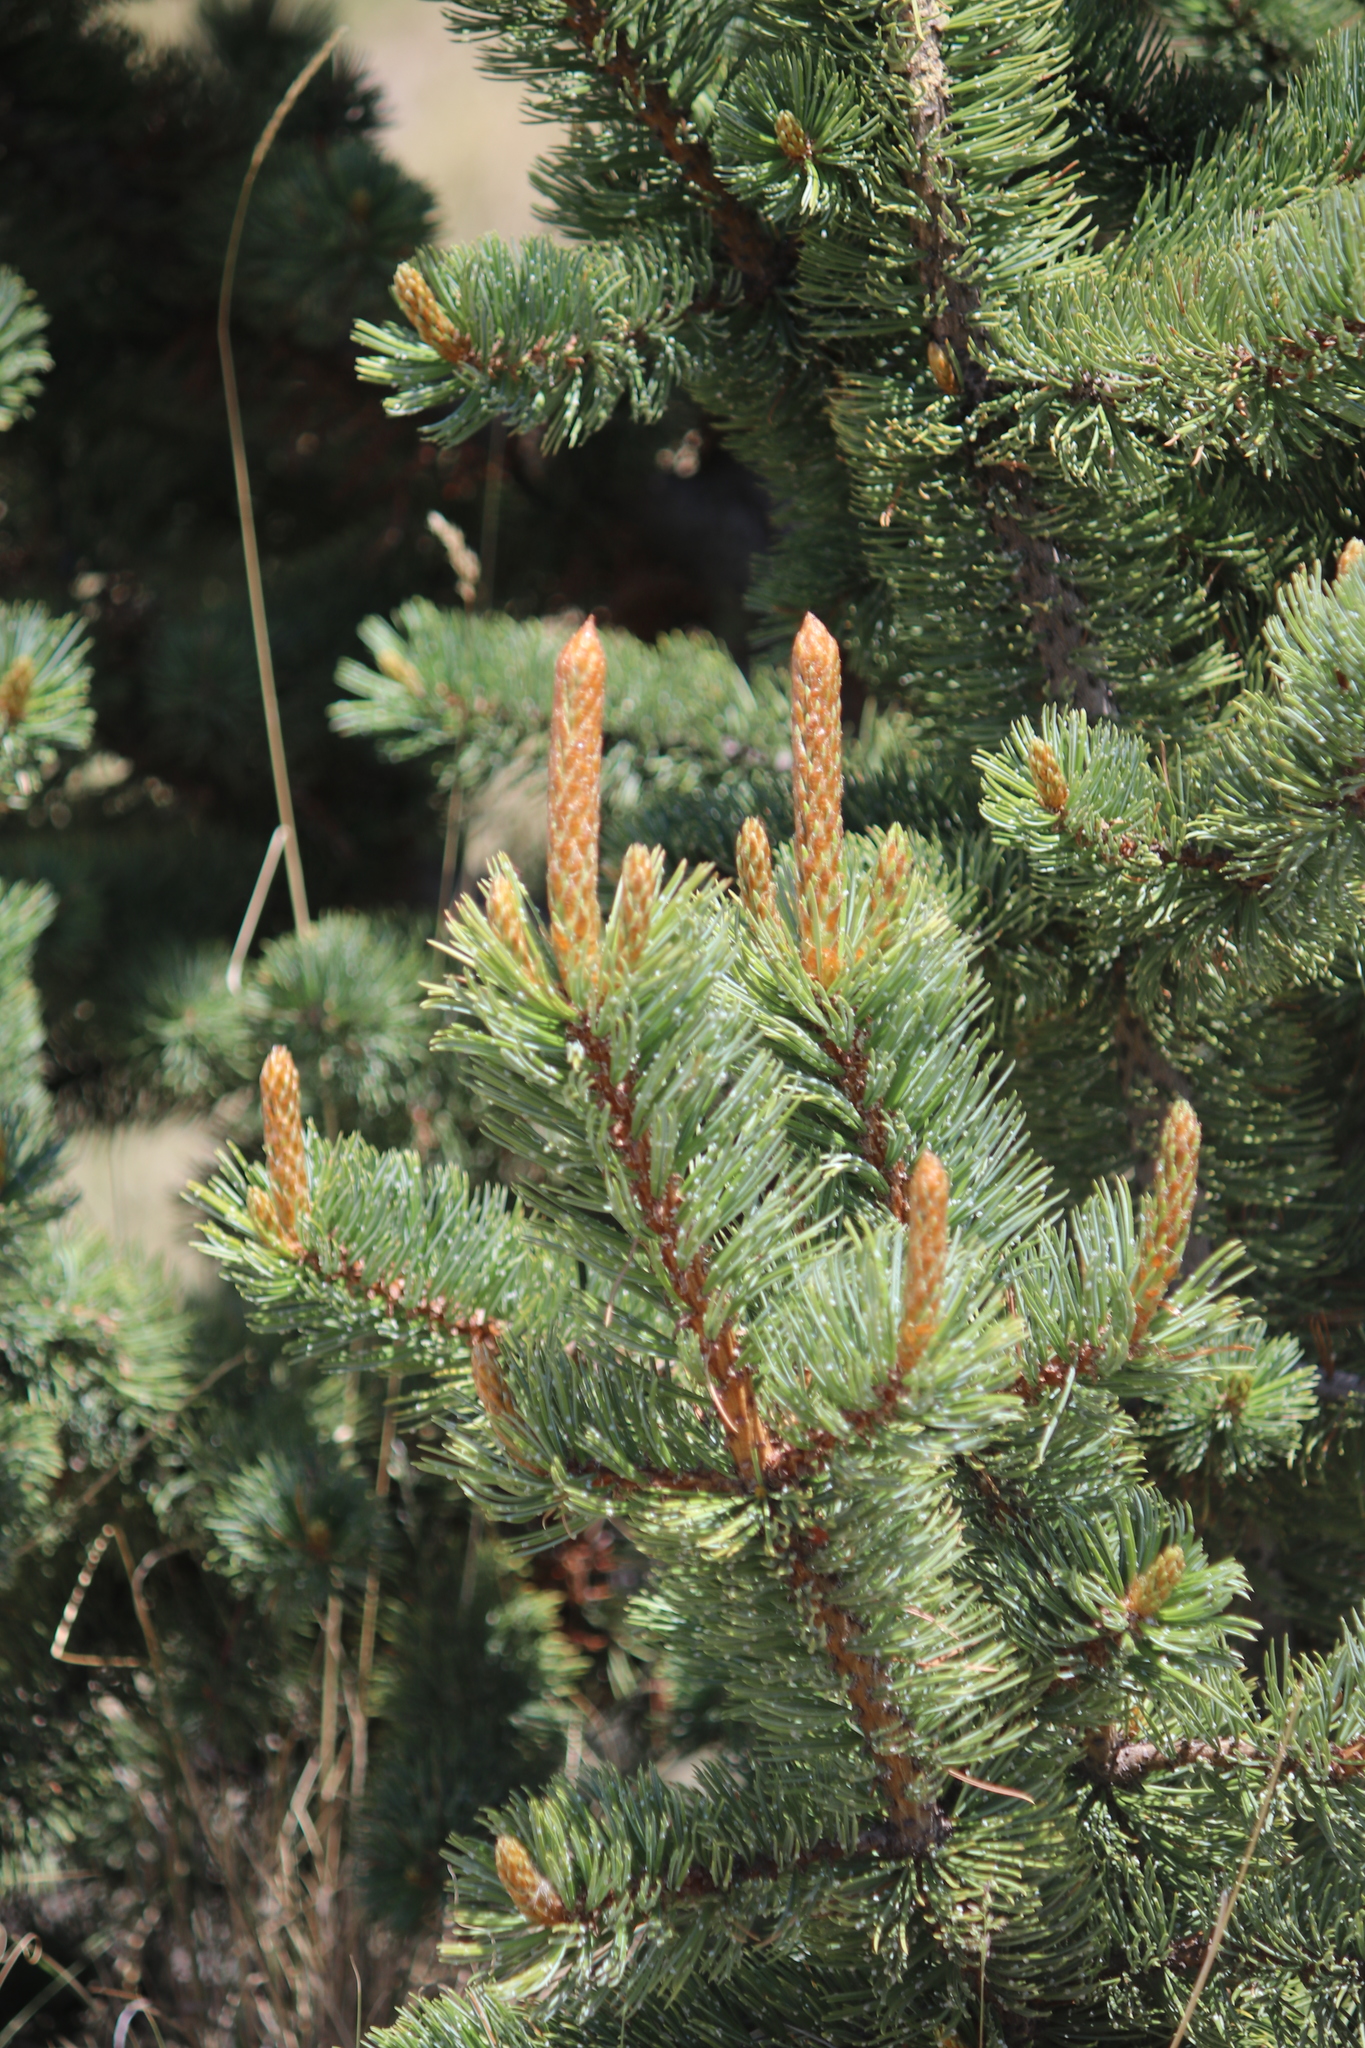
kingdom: Plantae
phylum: Tracheophyta
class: Pinopsida
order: Pinales
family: Pinaceae
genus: Pinus
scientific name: Pinus aristata
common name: Colorado bristlecone pine
